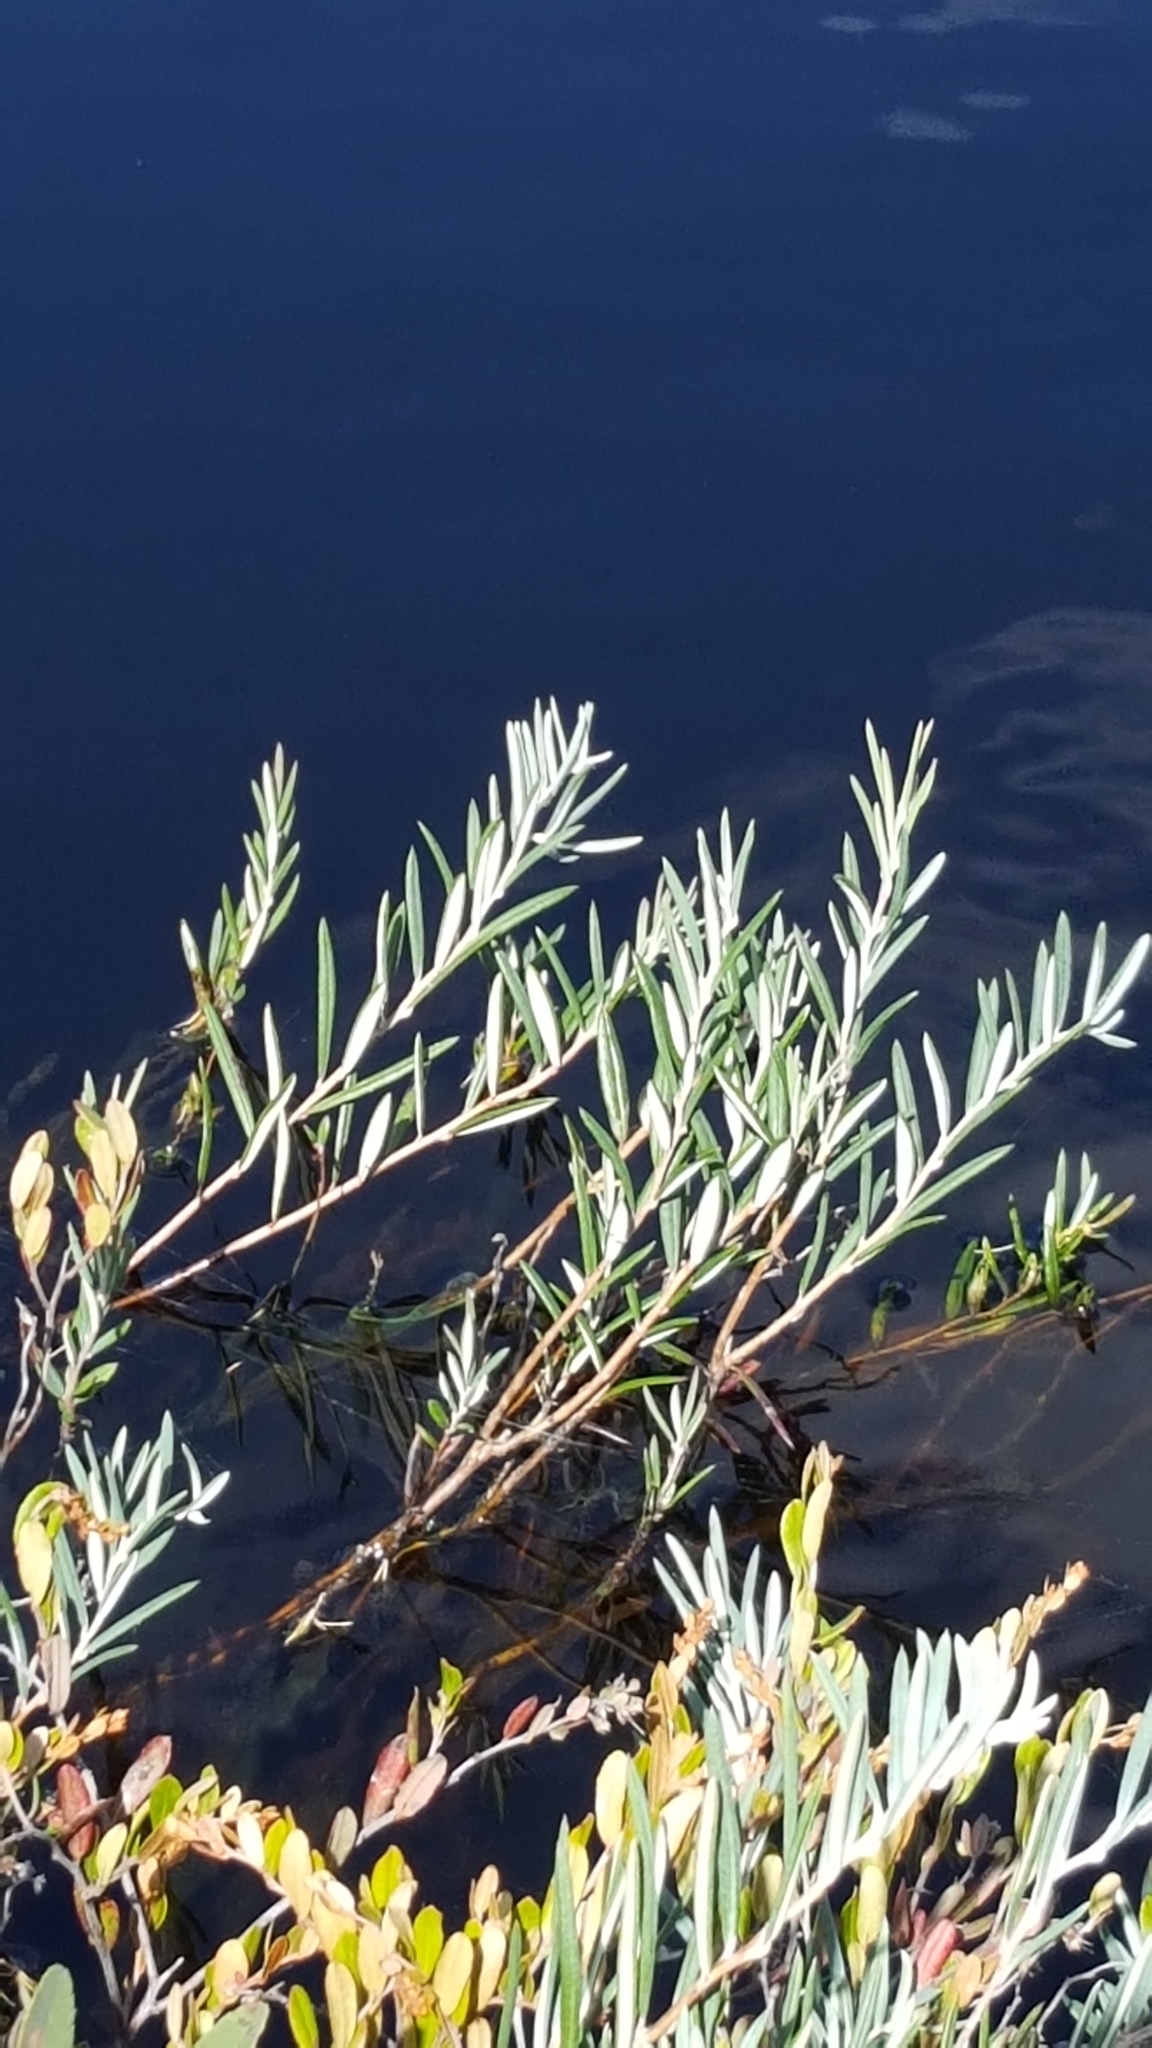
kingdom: Plantae
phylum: Tracheophyta
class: Magnoliopsida
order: Ericales
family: Ericaceae
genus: Andromeda
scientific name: Andromeda polifolia
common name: Bog-rosemary
